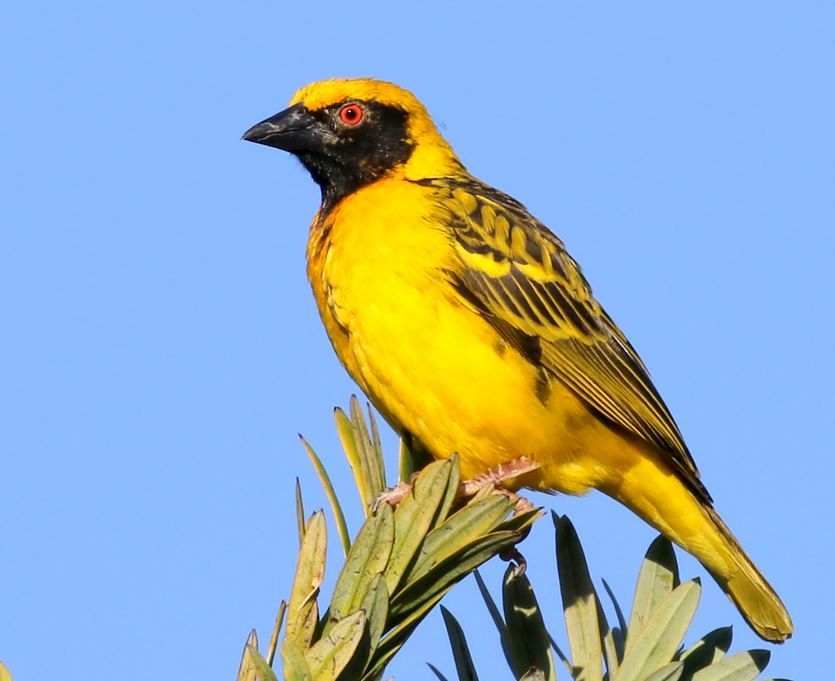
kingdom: Animalia
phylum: Chordata
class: Aves
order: Passeriformes
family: Ploceidae
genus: Ploceus
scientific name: Ploceus cucullatus
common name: Village weaver
